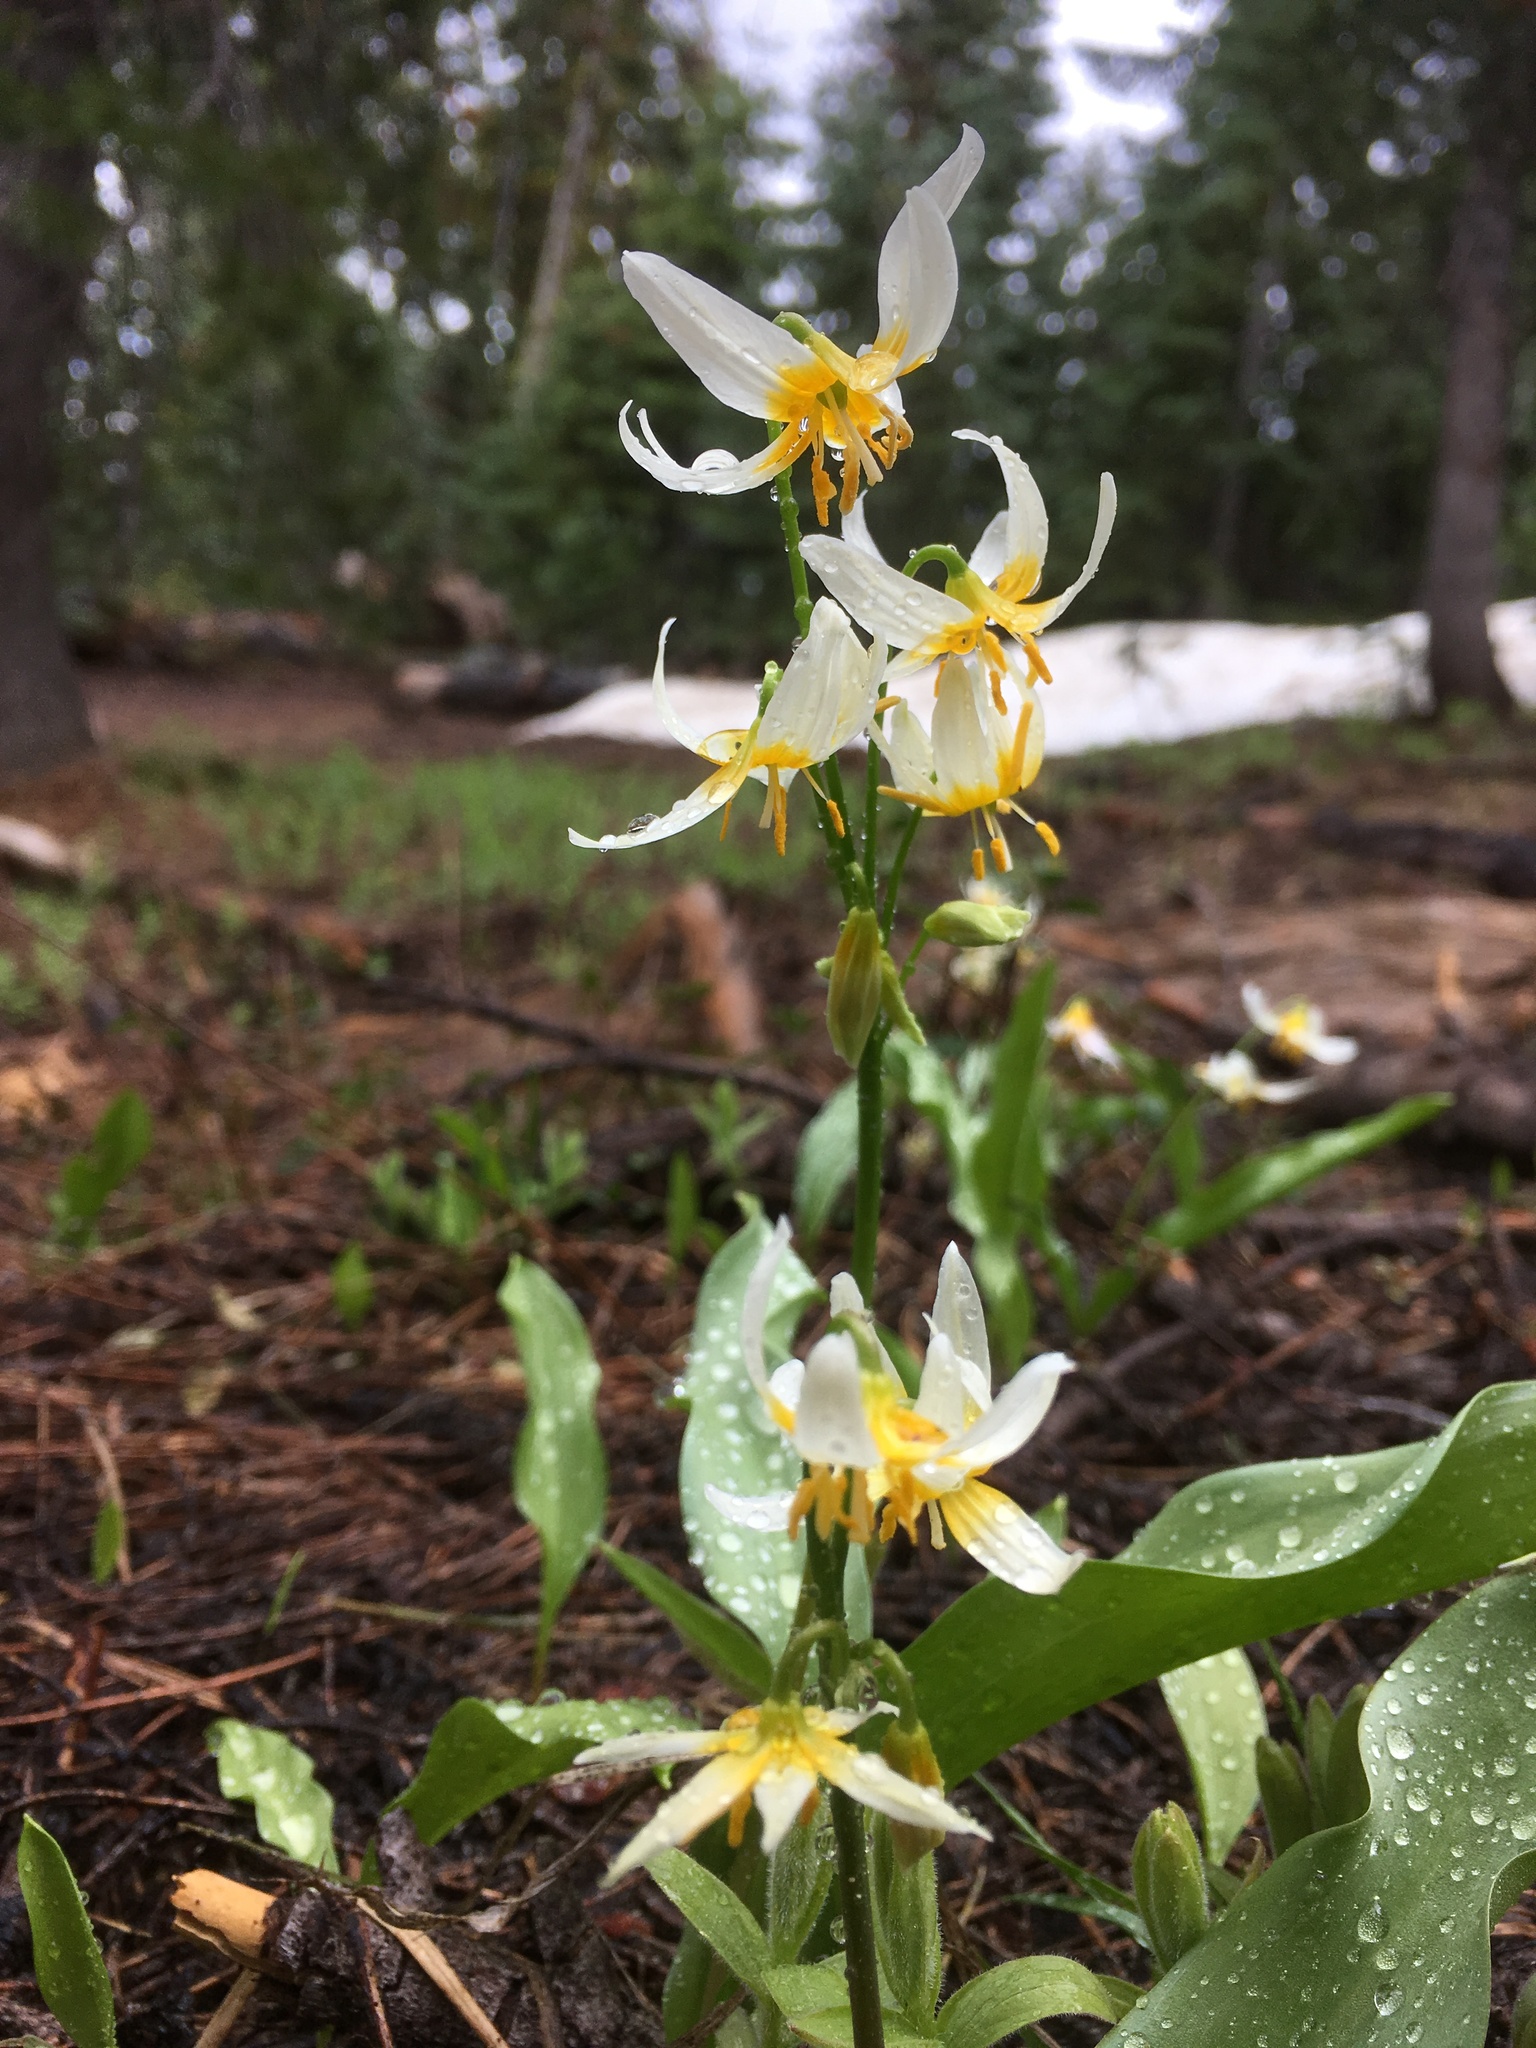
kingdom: Plantae
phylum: Tracheophyta
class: Liliopsida
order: Liliales
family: Liliaceae
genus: Erythronium
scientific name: Erythronium purpurascens
